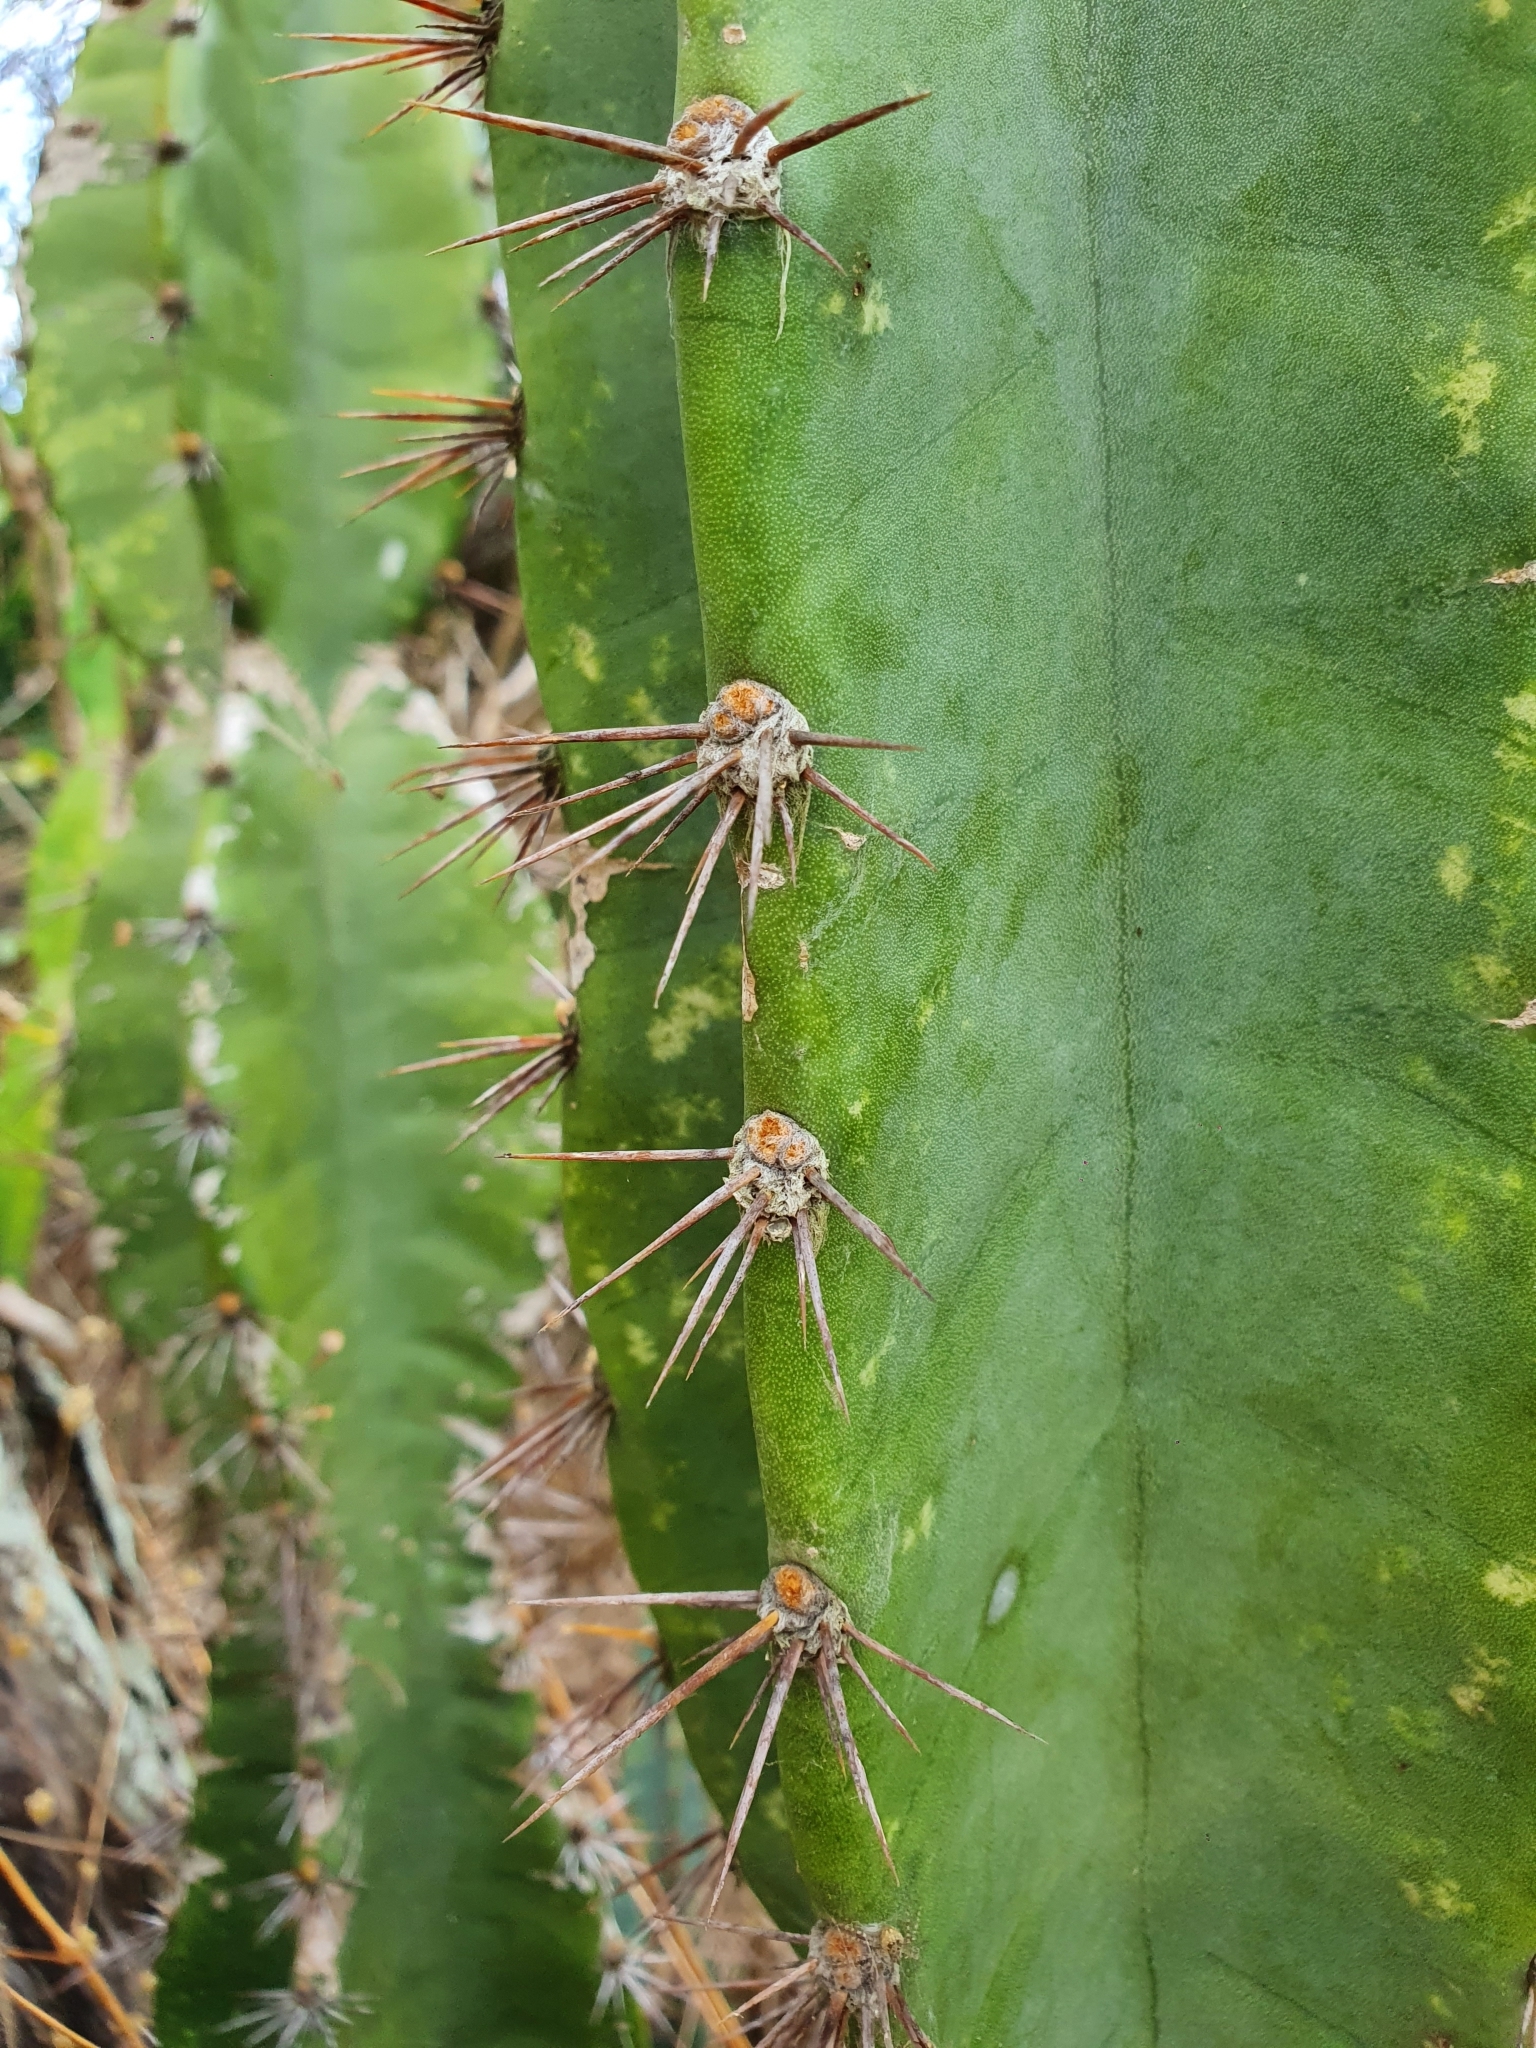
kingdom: Plantae
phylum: Tracheophyta
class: Magnoliopsida
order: Caryophyllales
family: Cactaceae
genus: Cereus
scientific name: Cereus hildmannianus
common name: Hedge cactus
